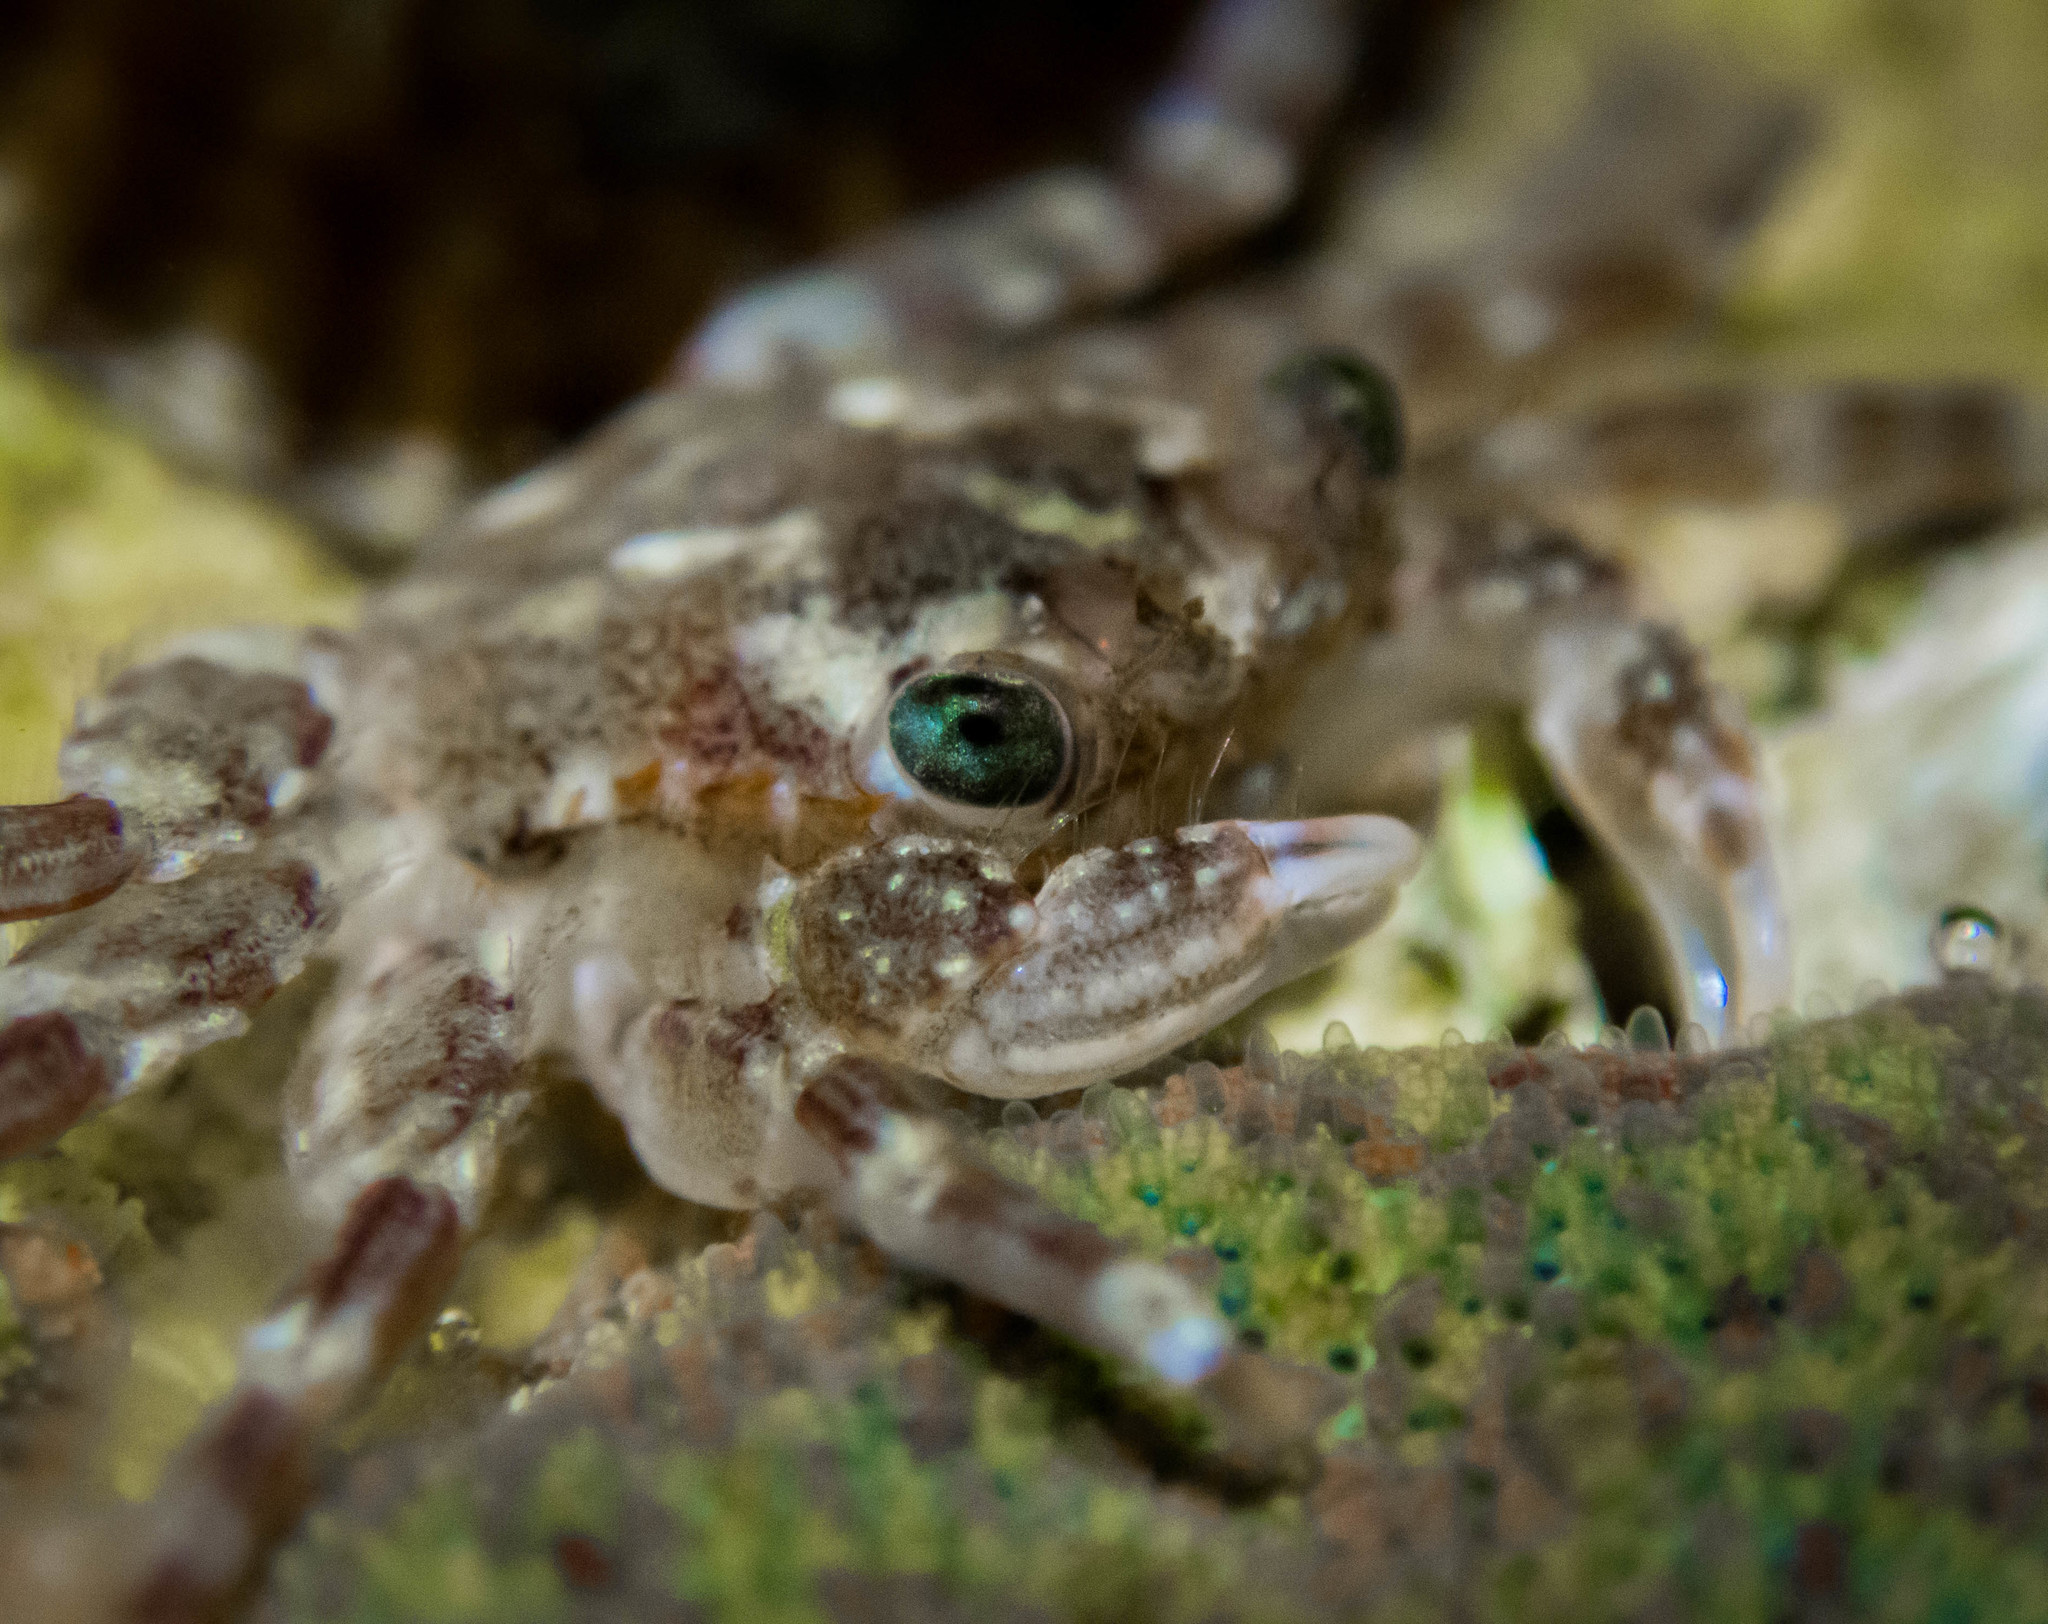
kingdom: Animalia
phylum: Arthropoda
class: Malacostraca
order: Decapoda
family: Plagusiidae
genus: Guinusia
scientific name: Guinusia chabrus
